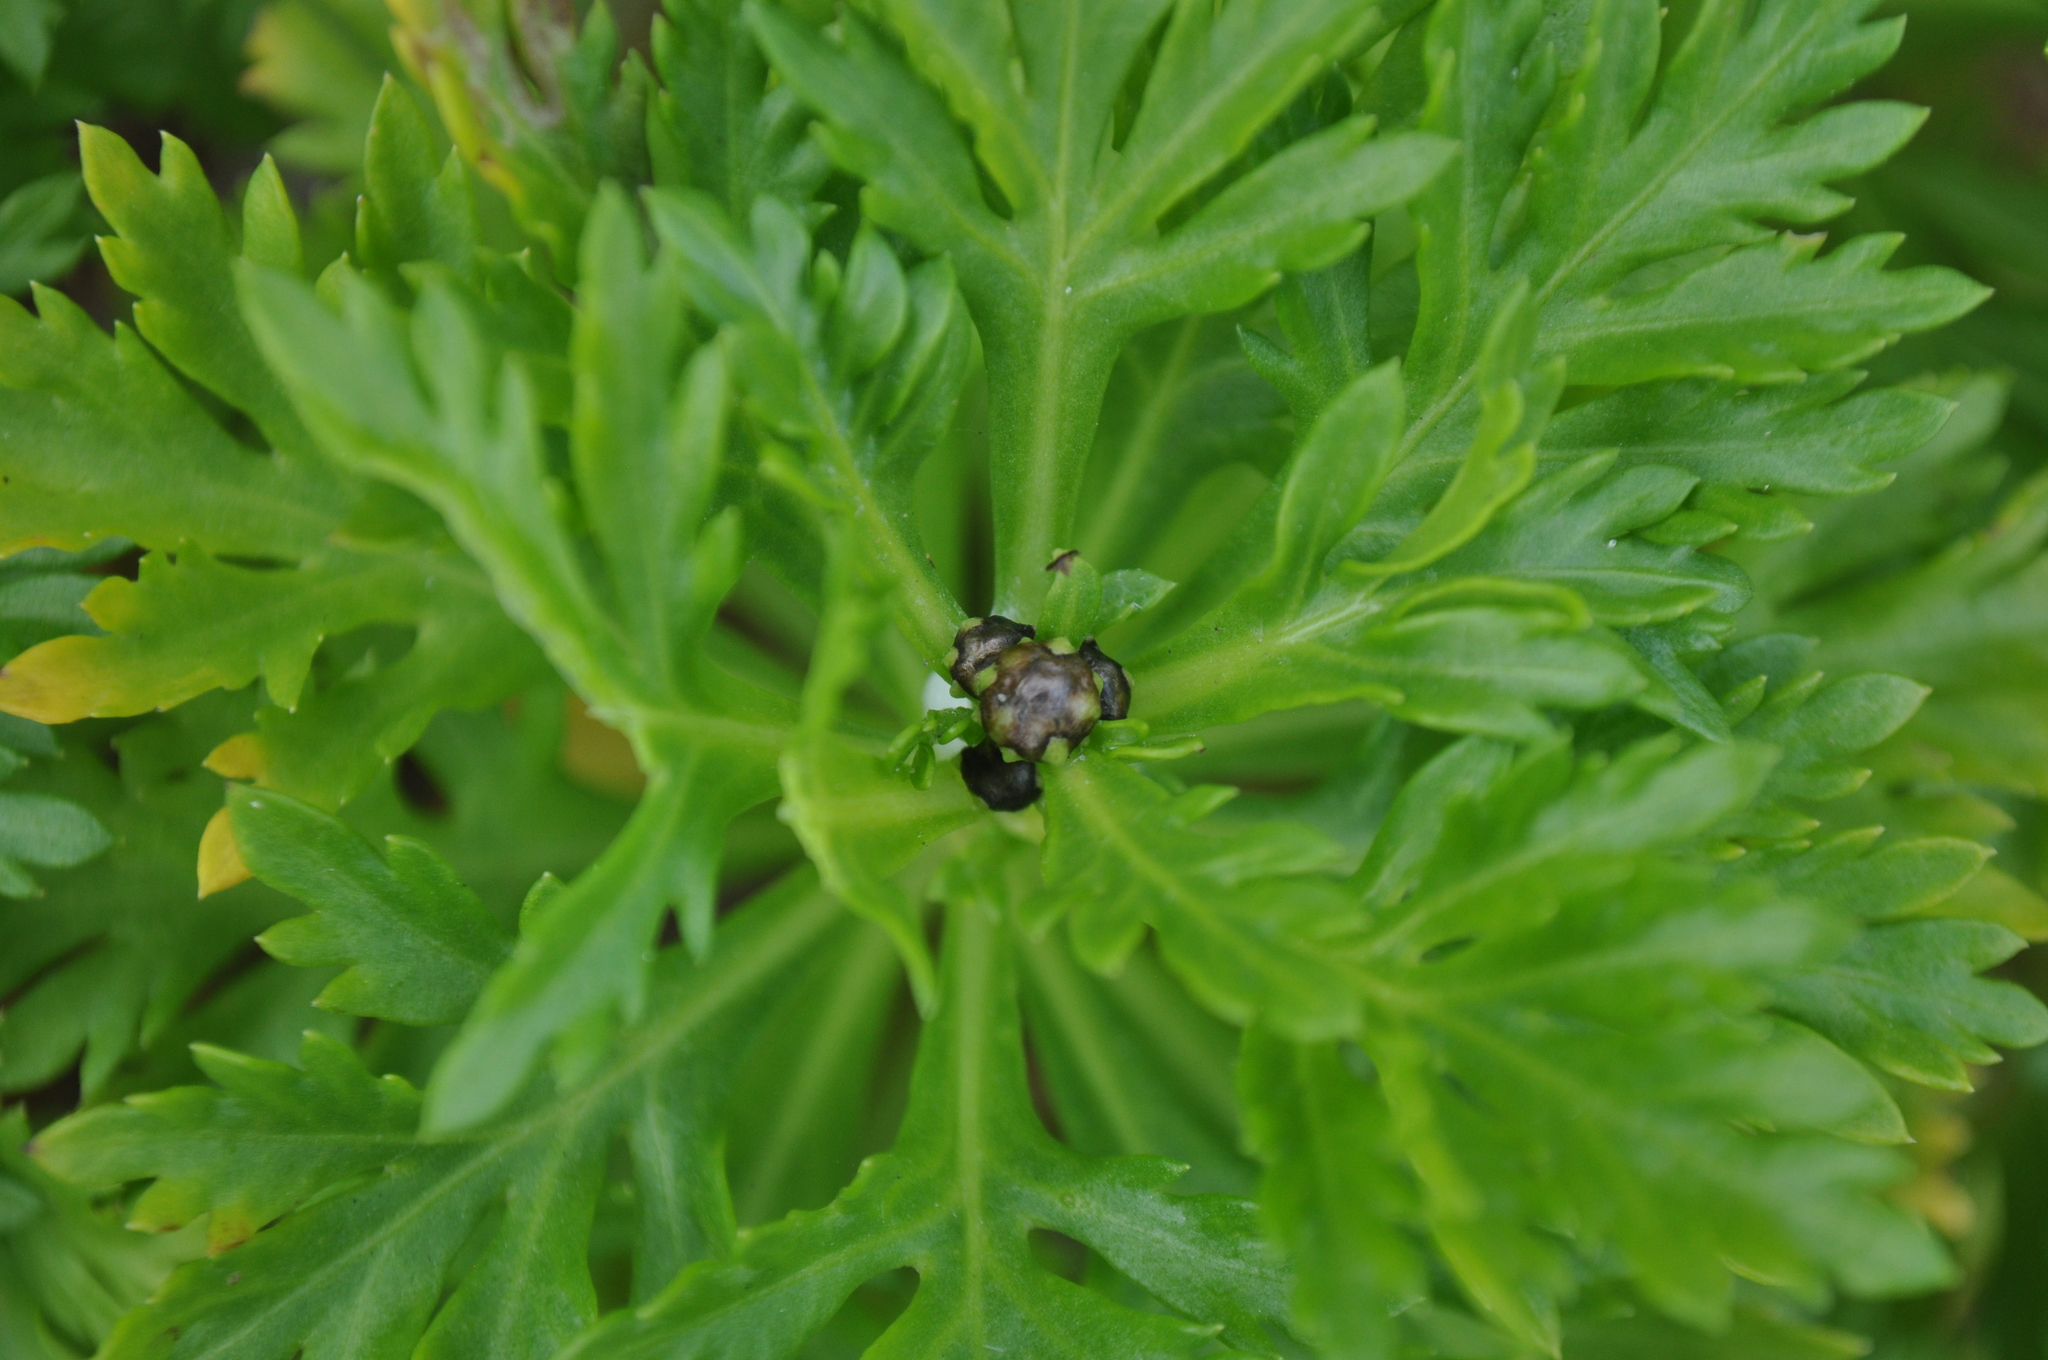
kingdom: Plantae
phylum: Tracheophyta
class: Magnoliopsida
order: Asterales
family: Asteraceae
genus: Argyranthemum
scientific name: Argyranthemum frutescens
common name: Paris daisy
